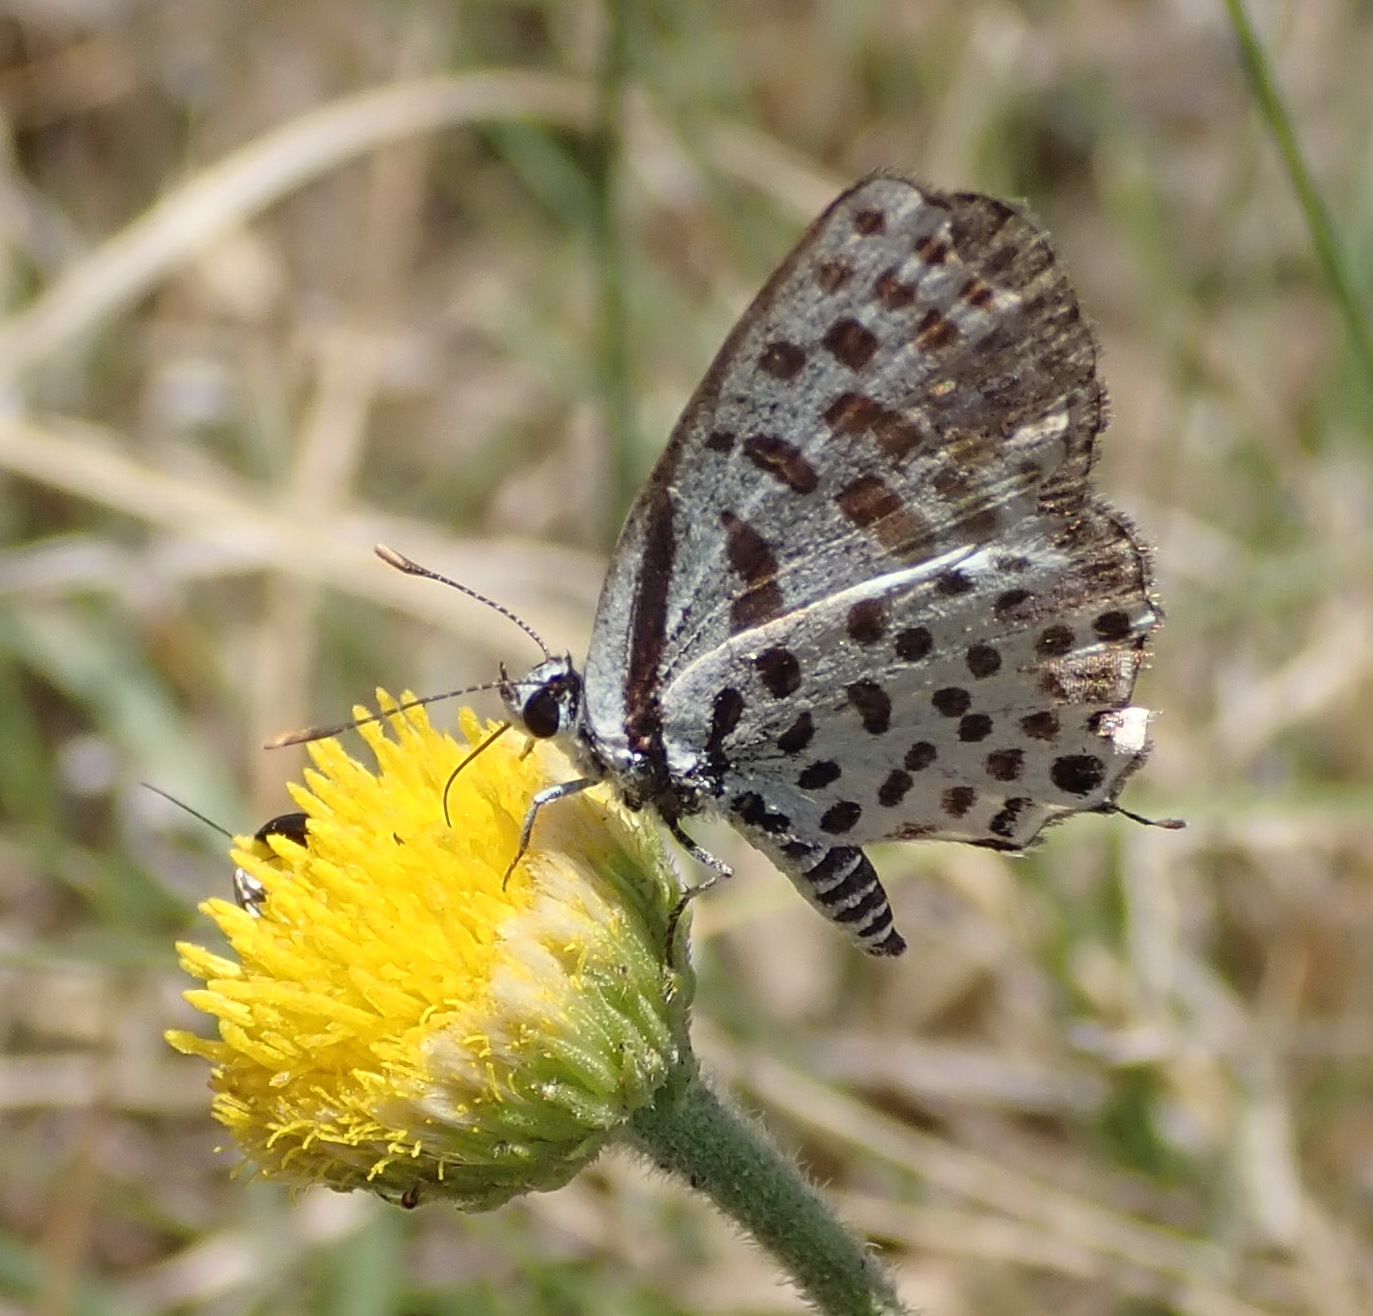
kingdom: Plantae
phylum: Tracheophyta
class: Magnoliopsida
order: Asterales
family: Asteraceae
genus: Nidorella
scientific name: Nidorella podocephala
